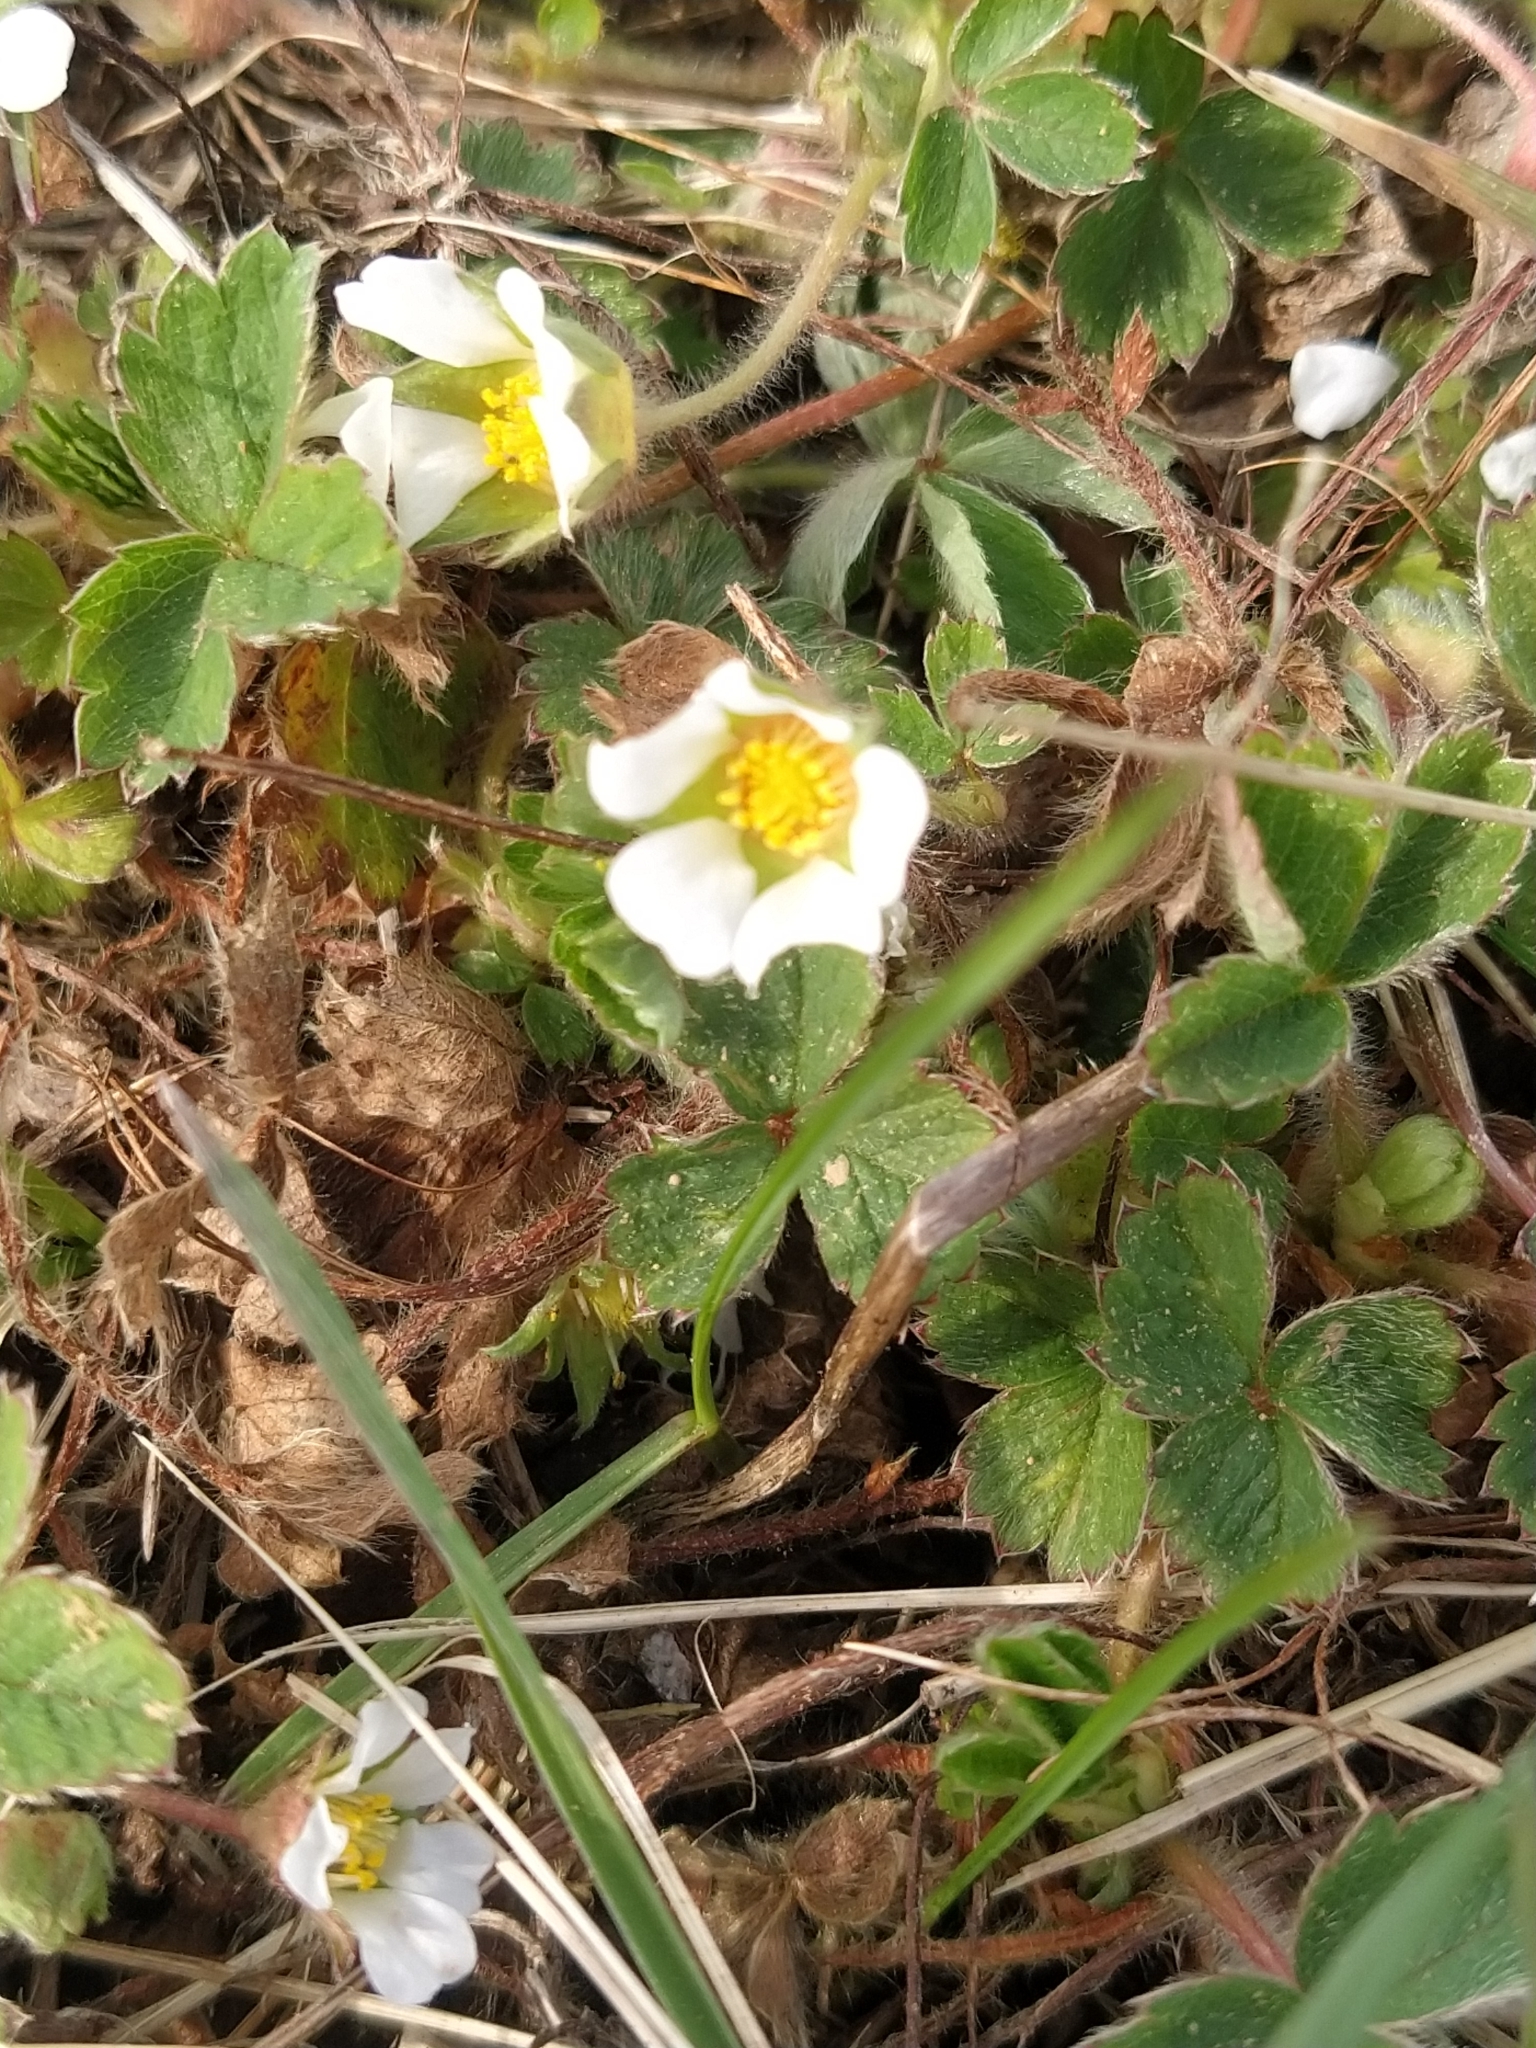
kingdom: Plantae
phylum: Tracheophyta
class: Magnoliopsida
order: Rosales
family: Rosaceae
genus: Potentilla
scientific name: Potentilla sterilis
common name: Barren strawberry
